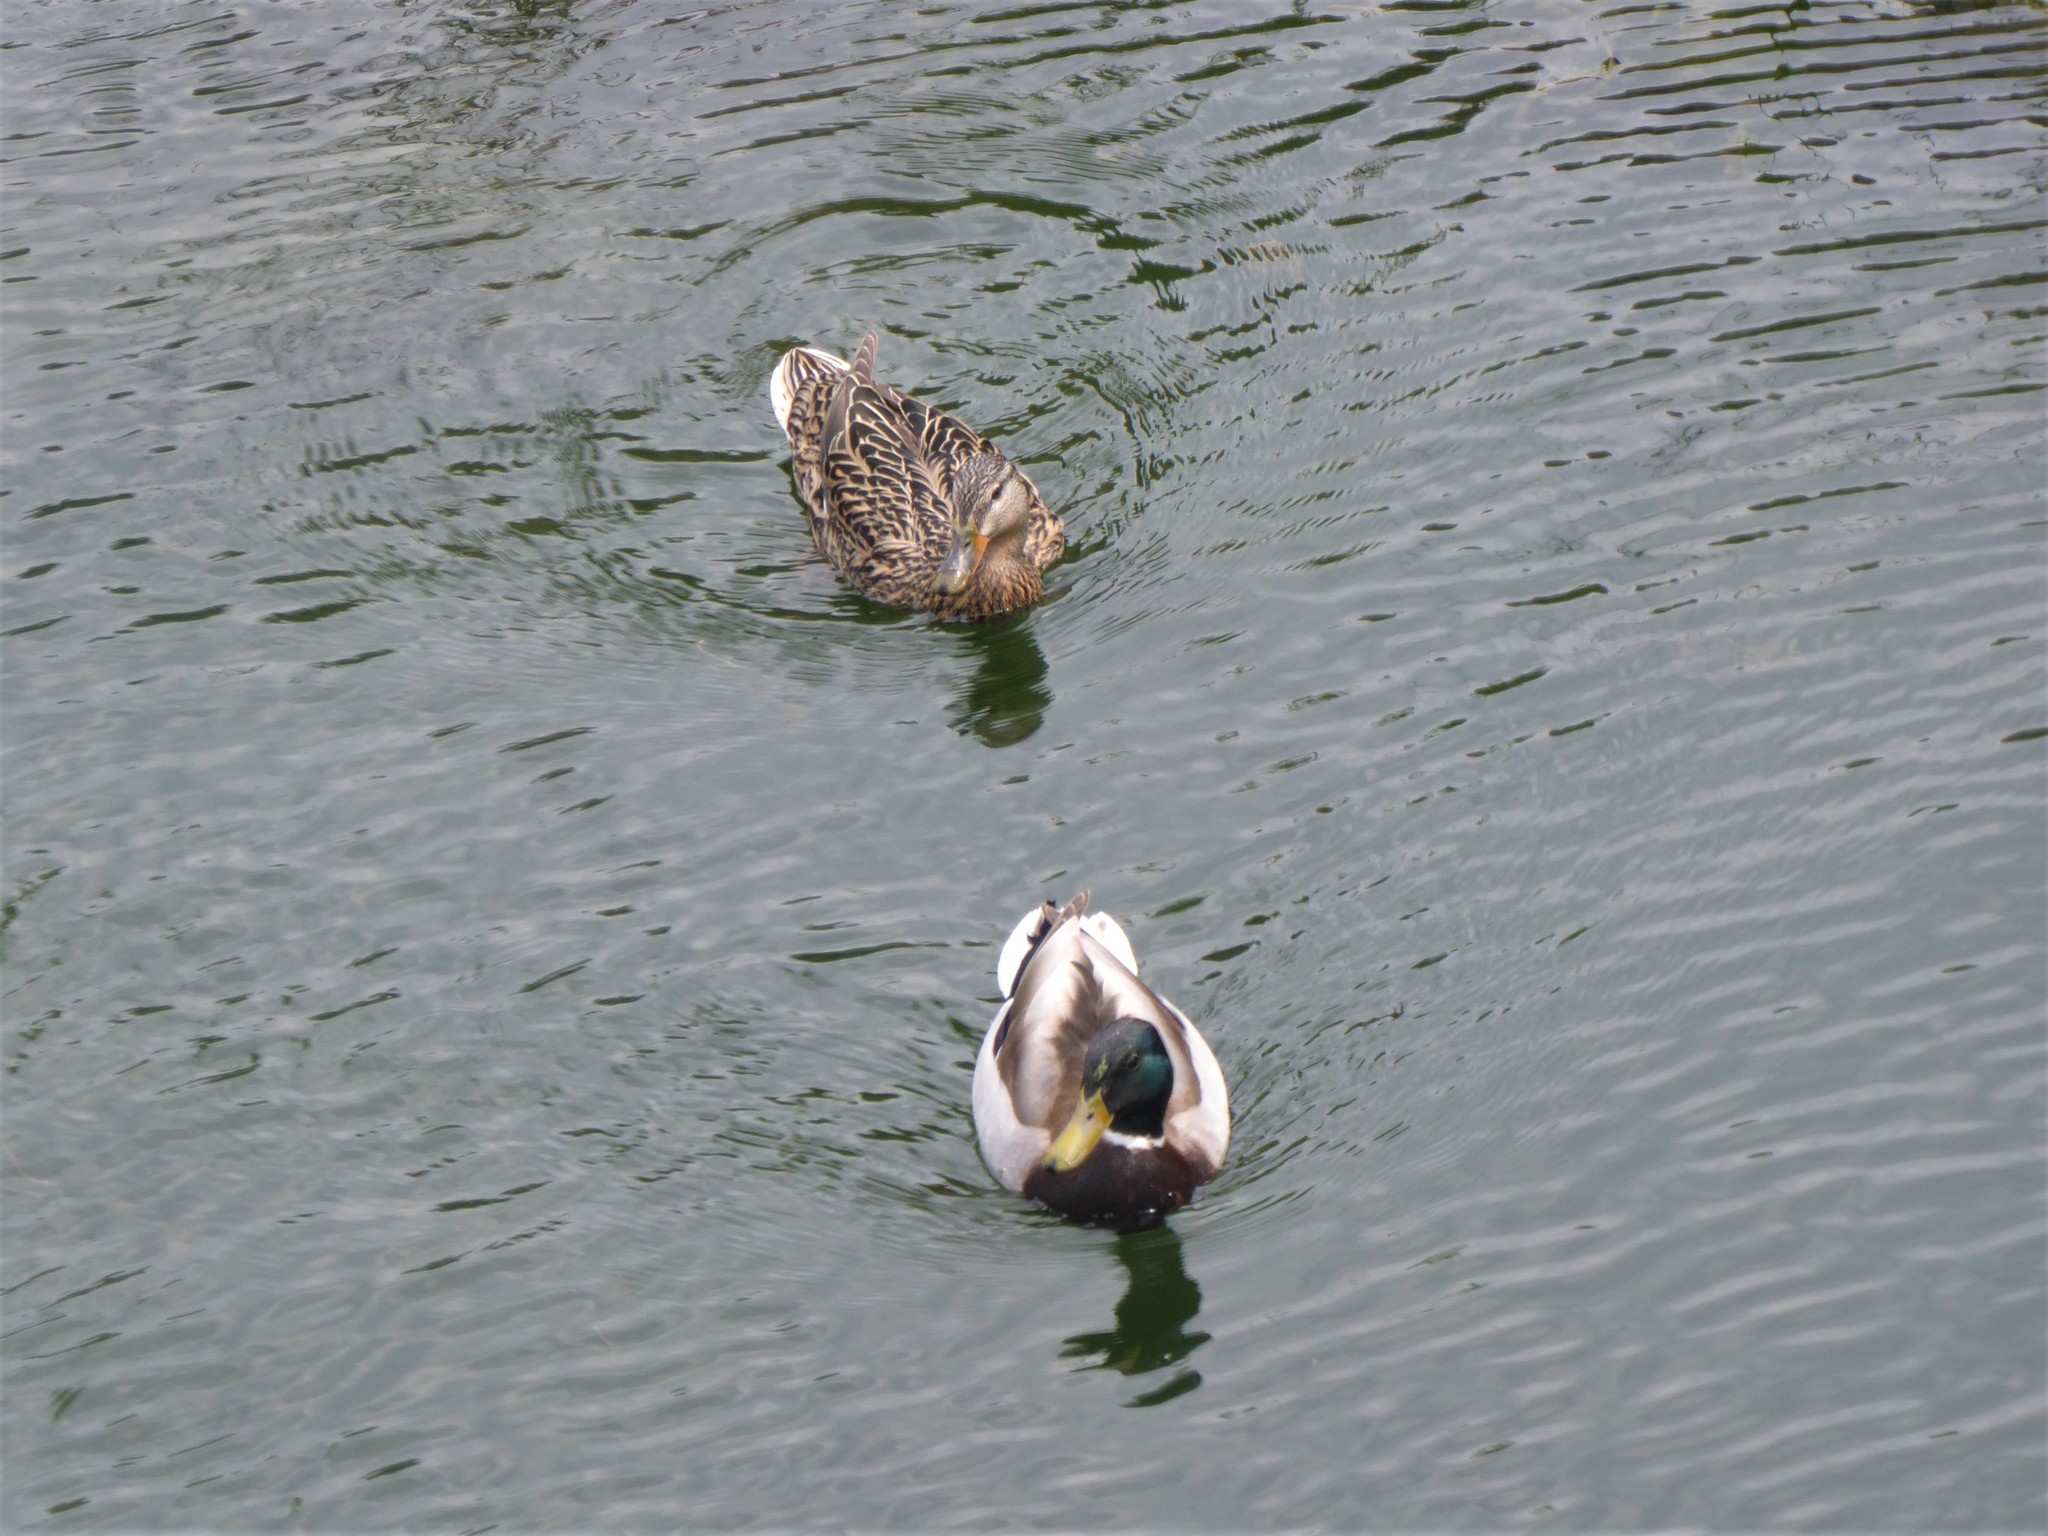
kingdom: Animalia
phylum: Chordata
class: Aves
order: Anseriformes
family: Anatidae
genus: Anas
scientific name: Anas platyrhynchos
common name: Mallard
